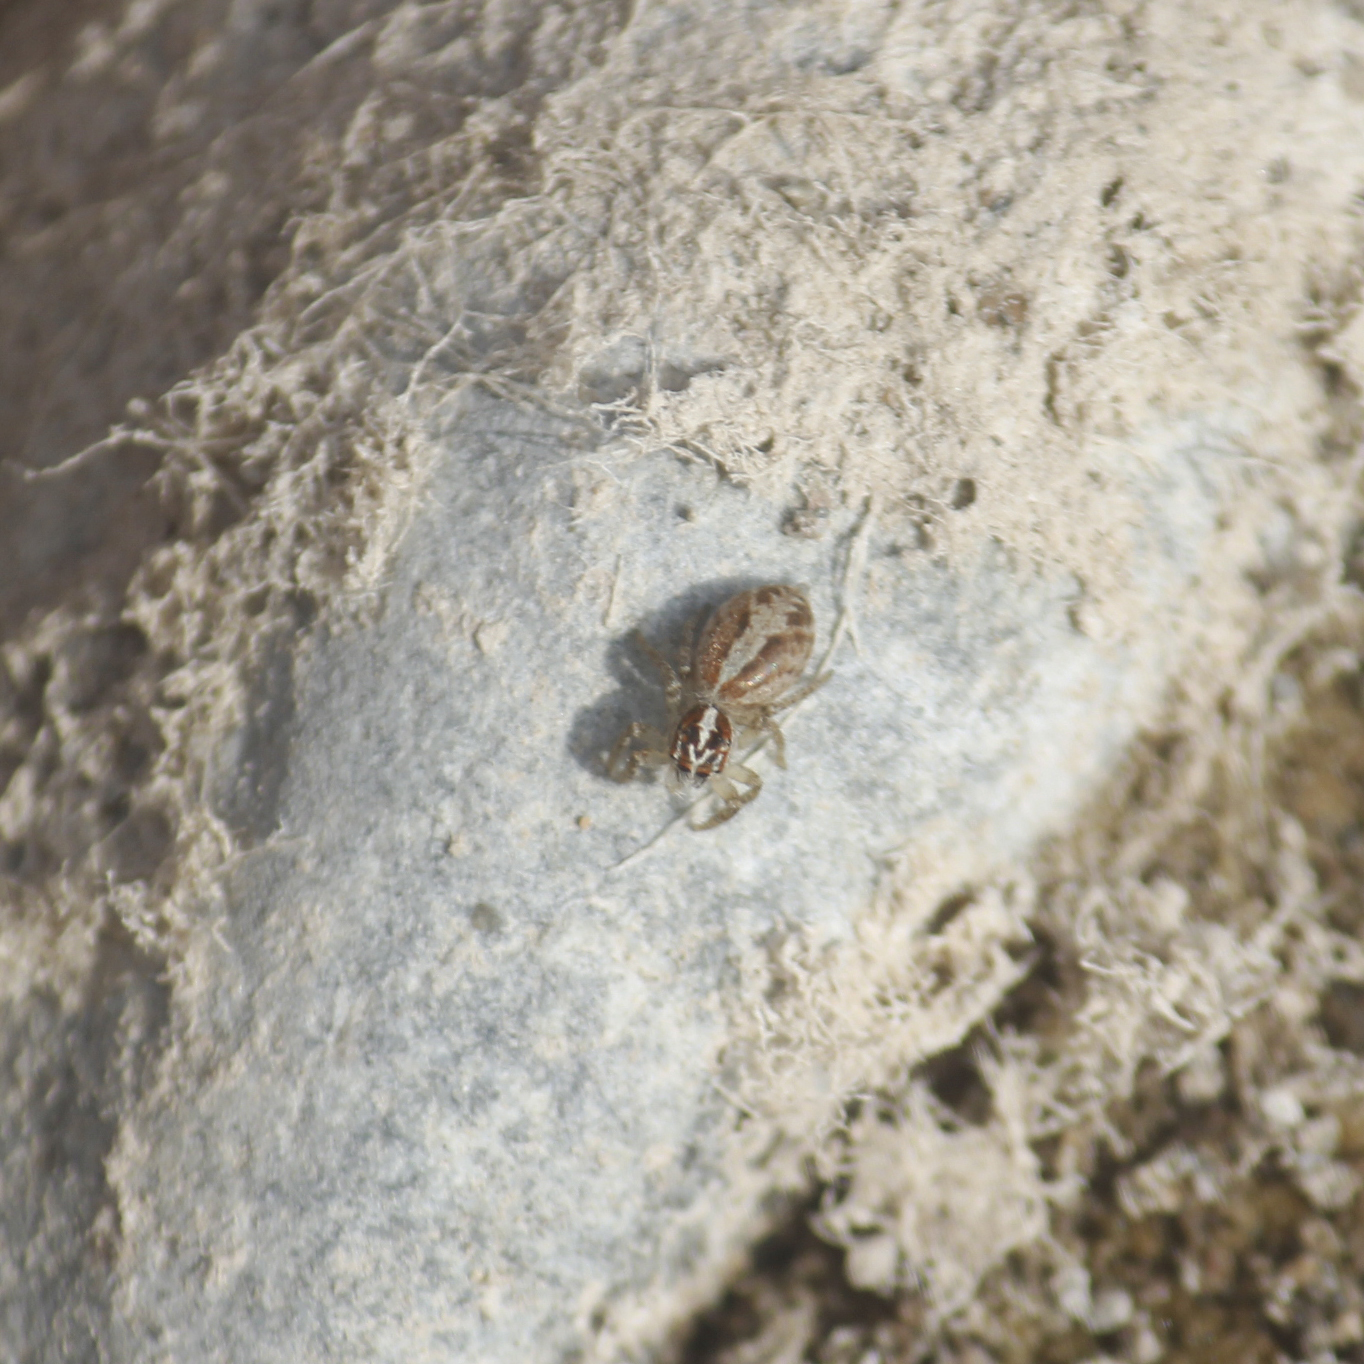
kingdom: Animalia
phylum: Arthropoda
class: Arachnida
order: Araneae
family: Salticidae
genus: Frigga
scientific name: Frigga crocuta
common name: Jumping spiders
